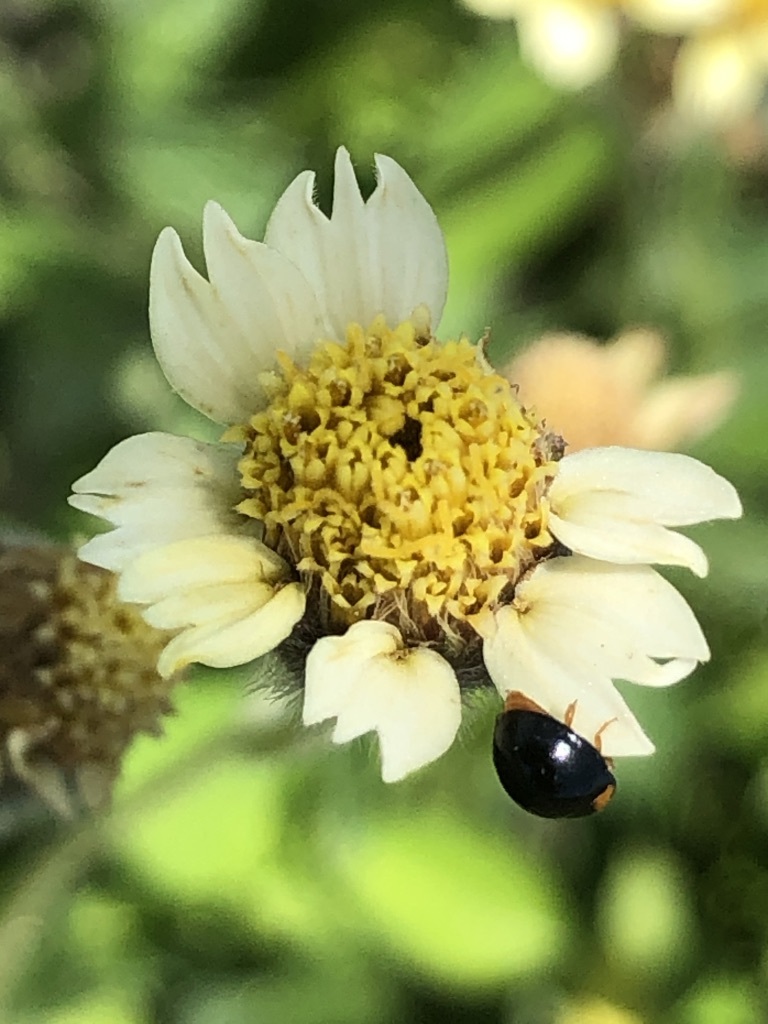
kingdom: Plantae
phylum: Tracheophyta
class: Magnoliopsida
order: Asterales
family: Asteraceae
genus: Tridax
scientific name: Tridax procumbens
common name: Coatbuttons
